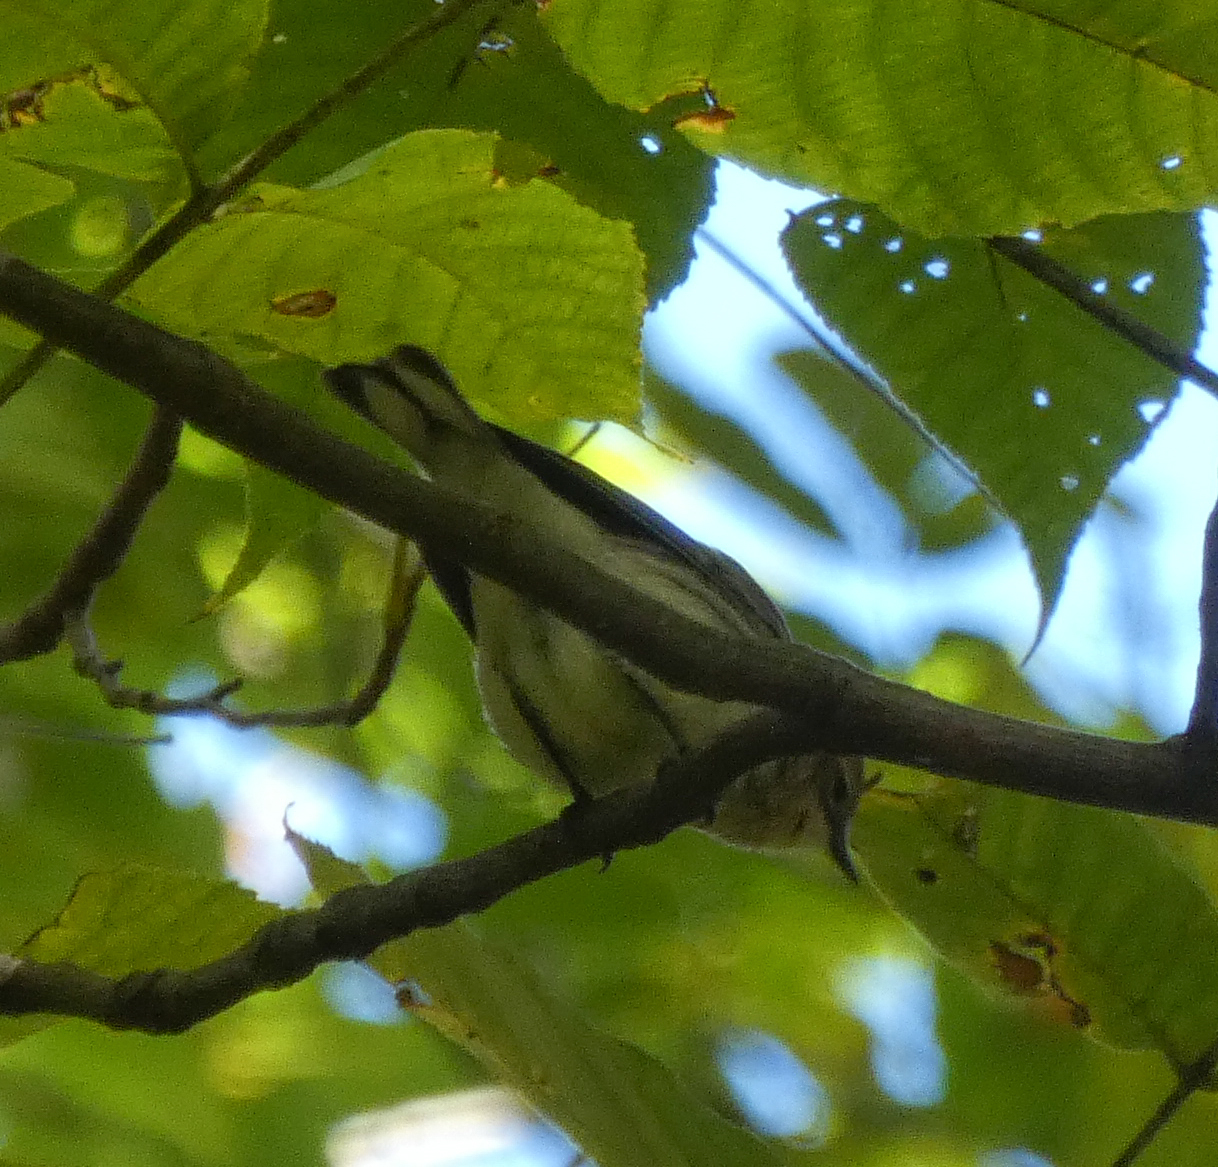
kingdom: Animalia
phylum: Chordata
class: Aves
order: Passeriformes
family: Parulidae
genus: Setophaga
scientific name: Setophaga coronata
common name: Myrtle warbler
